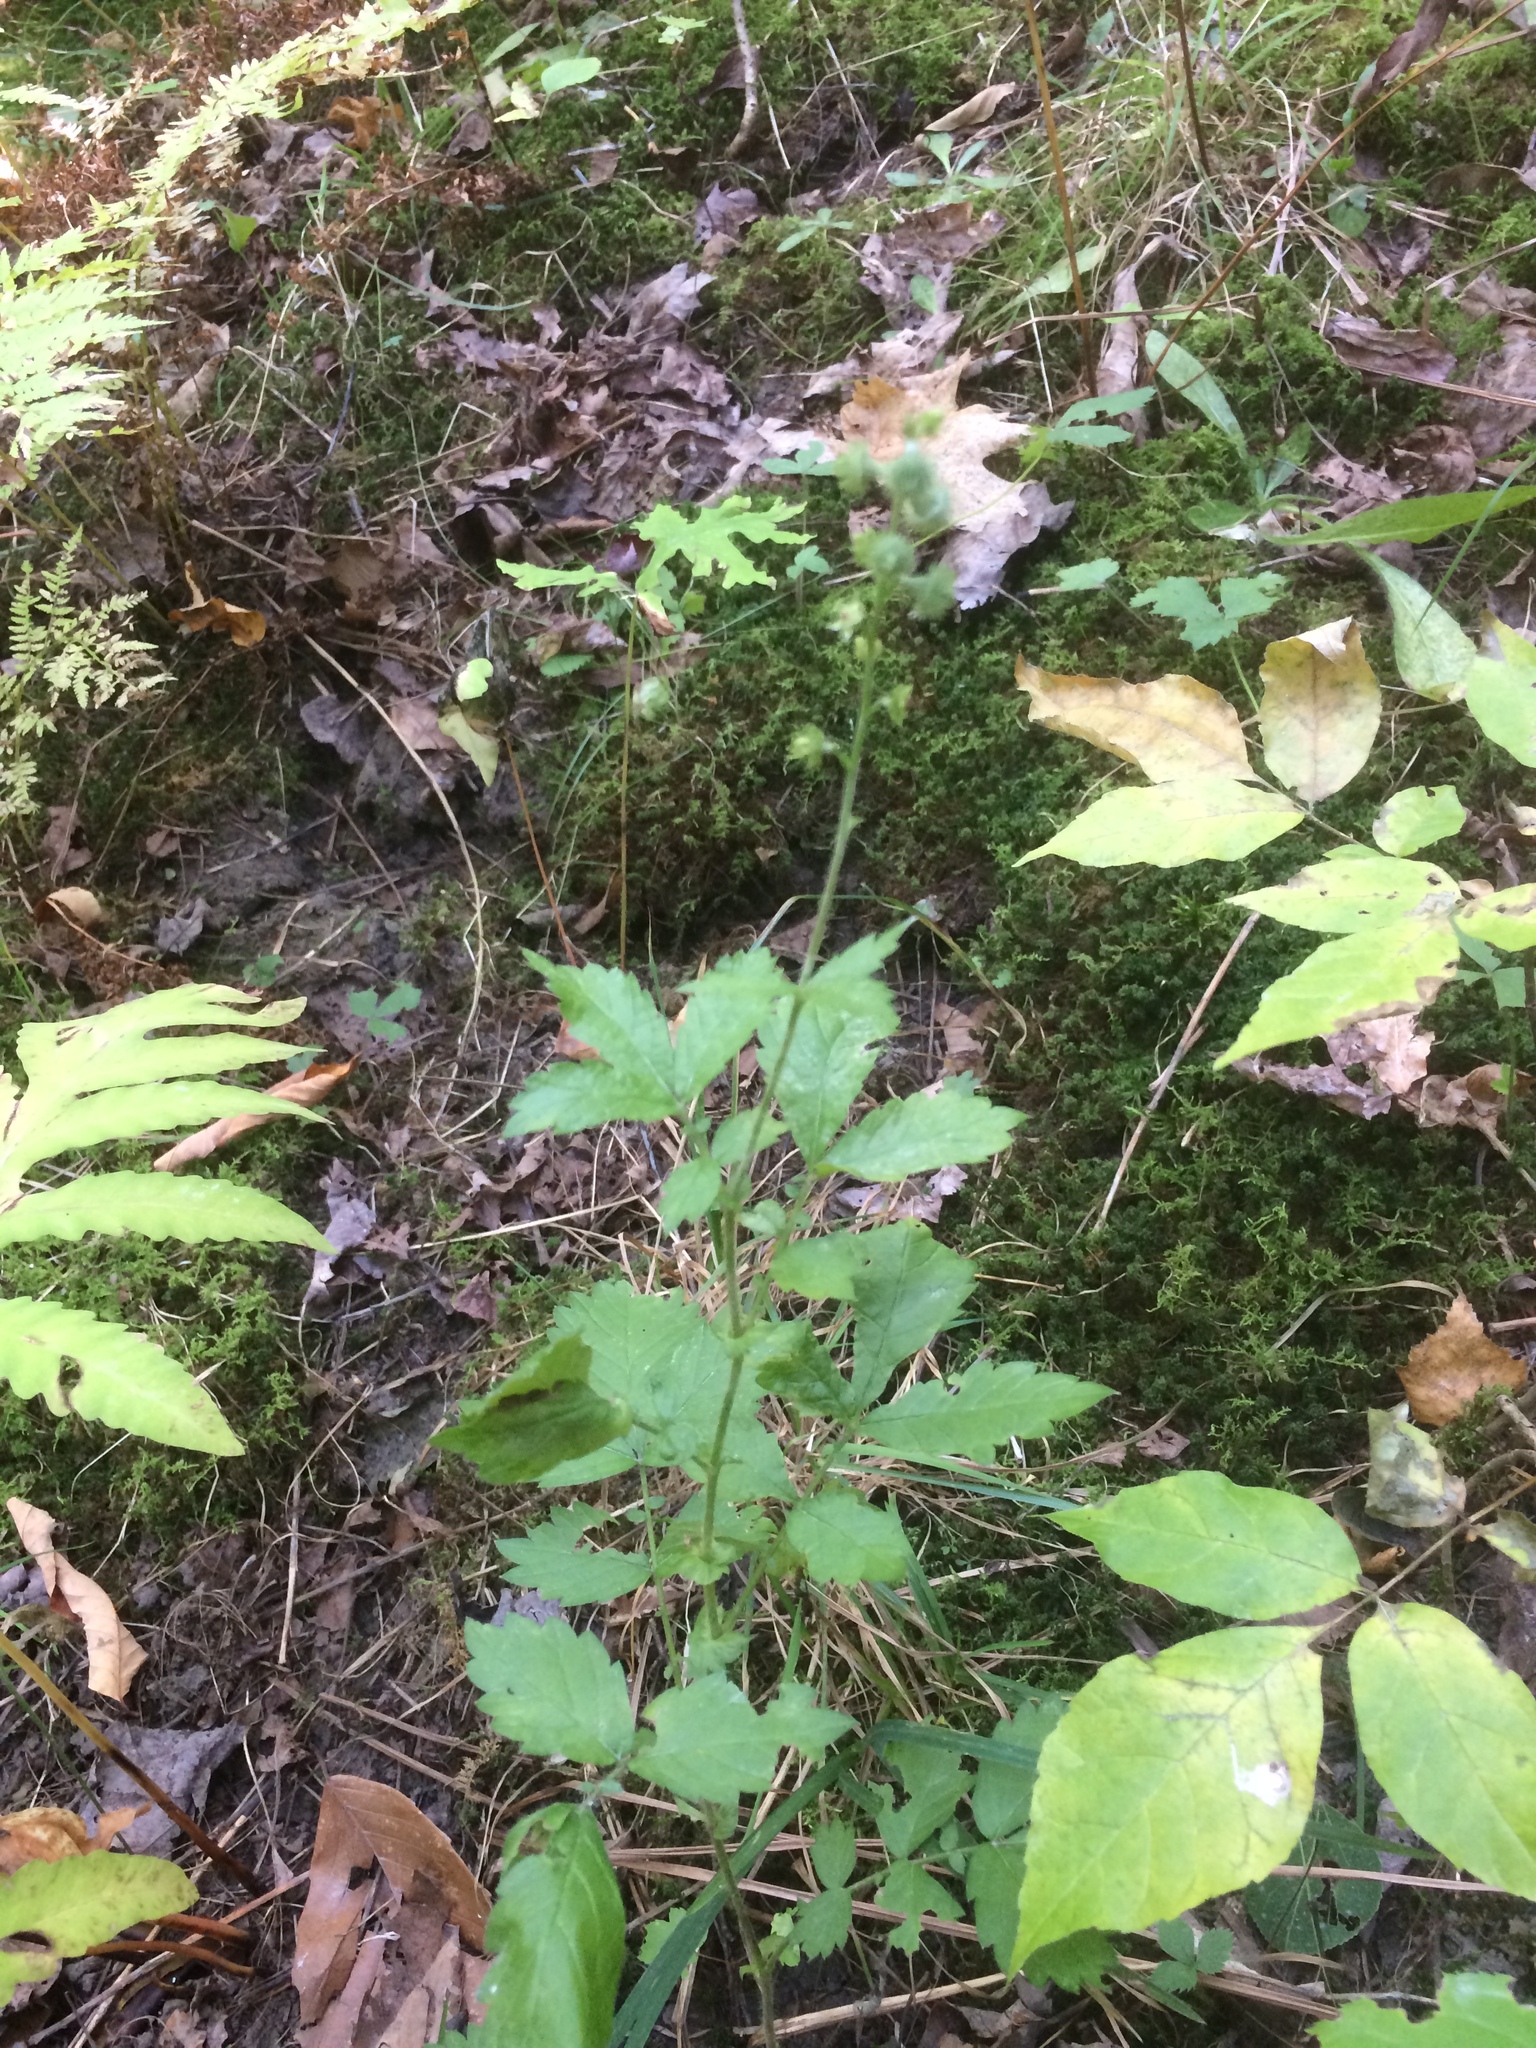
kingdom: Plantae
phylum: Tracheophyta
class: Magnoliopsida
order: Rosales
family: Rosaceae
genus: Agrimonia
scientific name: Agrimonia gryposepala
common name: Common agrimony
